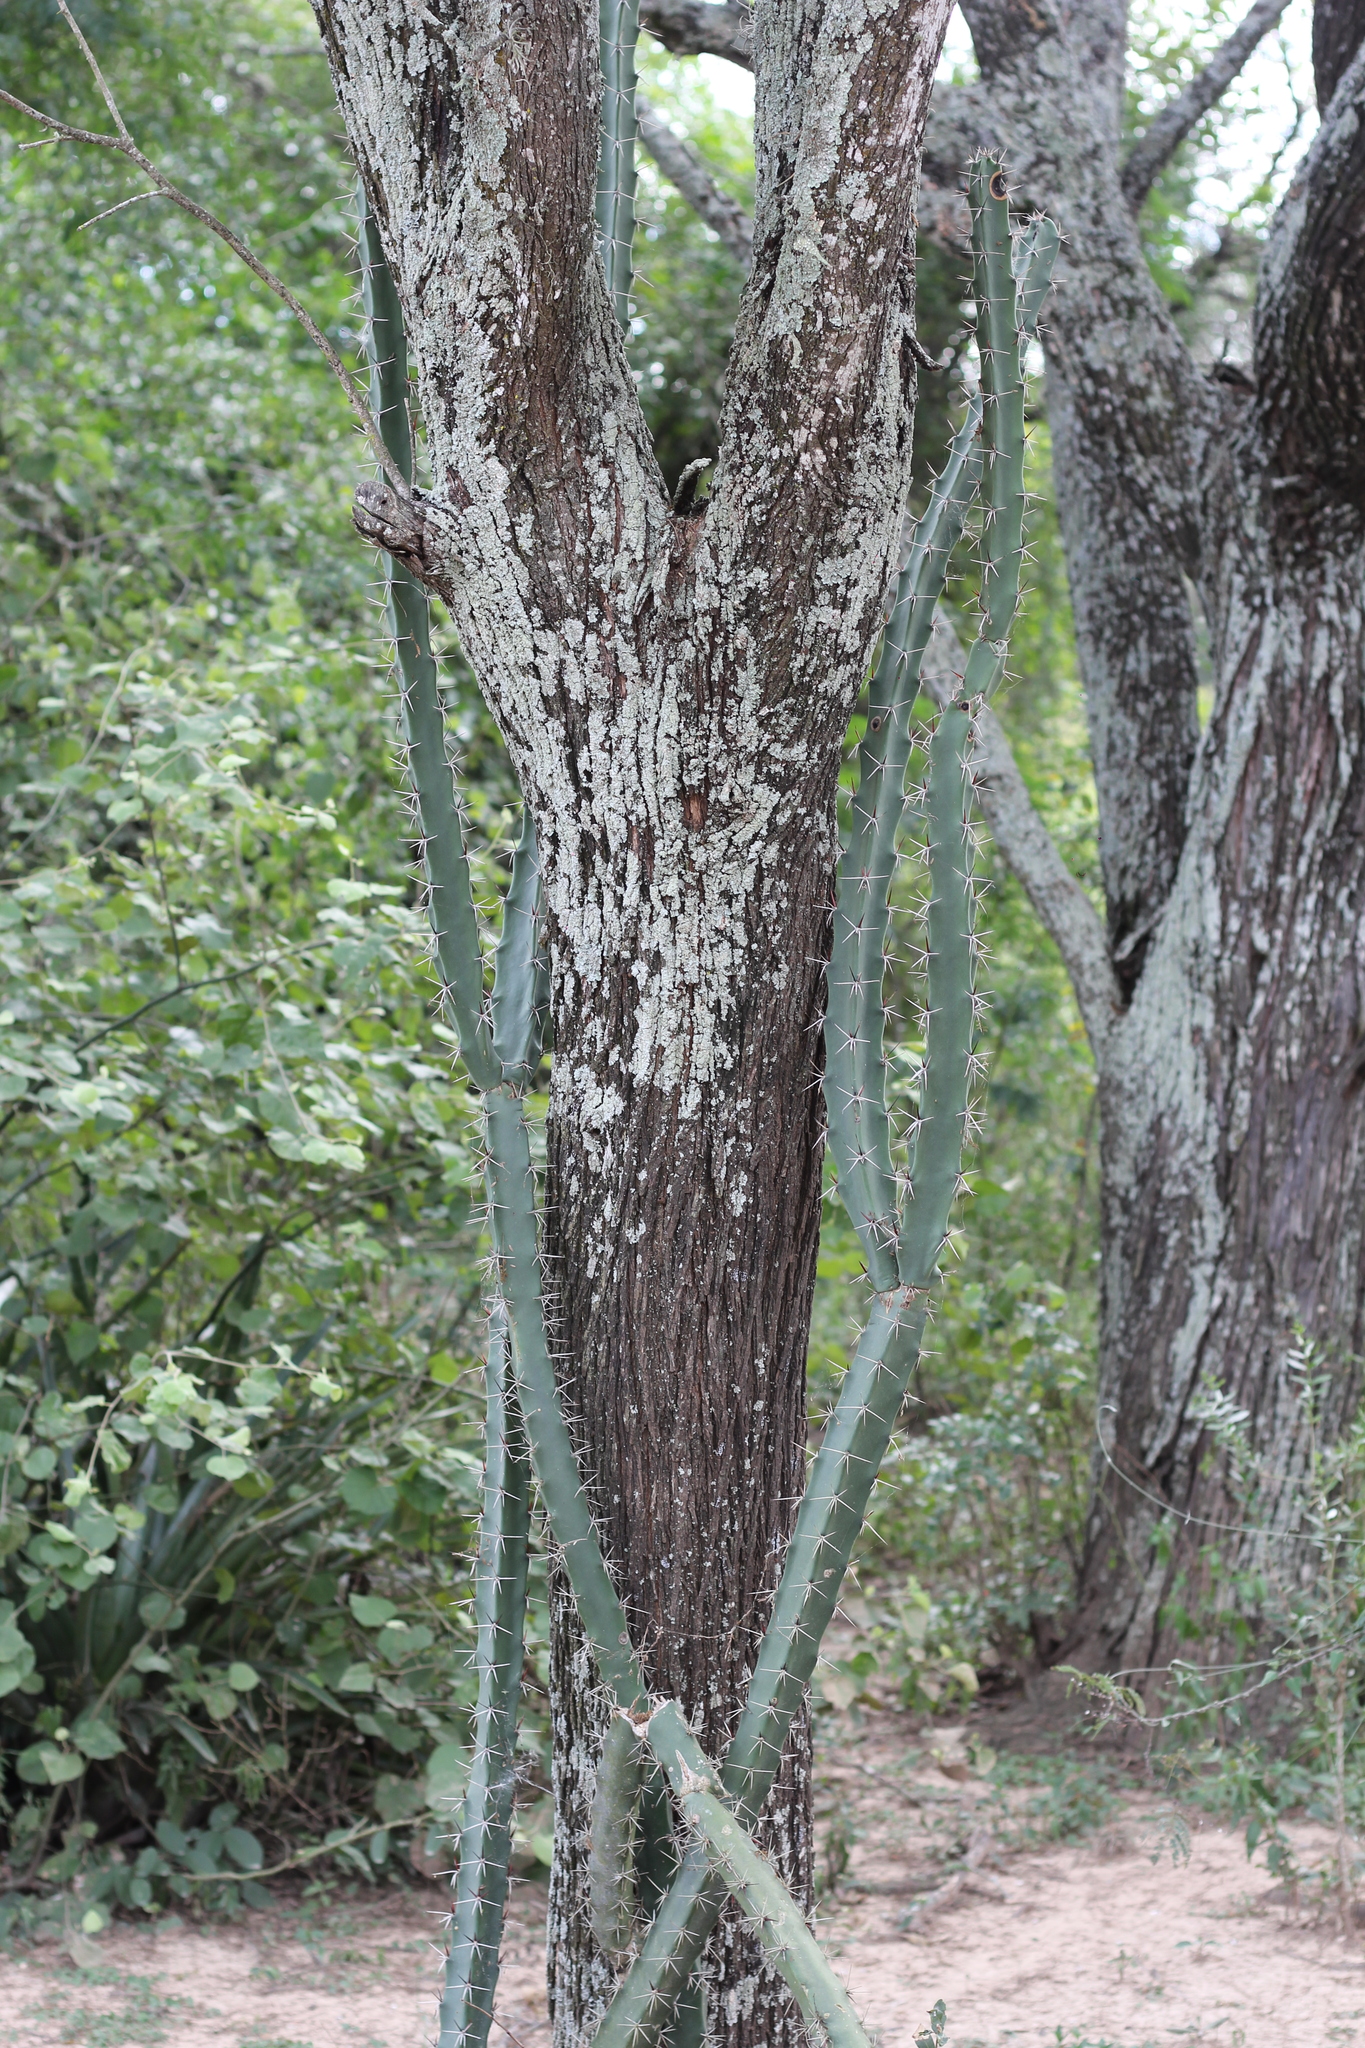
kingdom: Plantae
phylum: Tracheophyta
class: Magnoliopsida
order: Caryophyllales
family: Cactaceae
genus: Harrisia
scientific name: Harrisia bonplandii
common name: Queen of the night cactus
